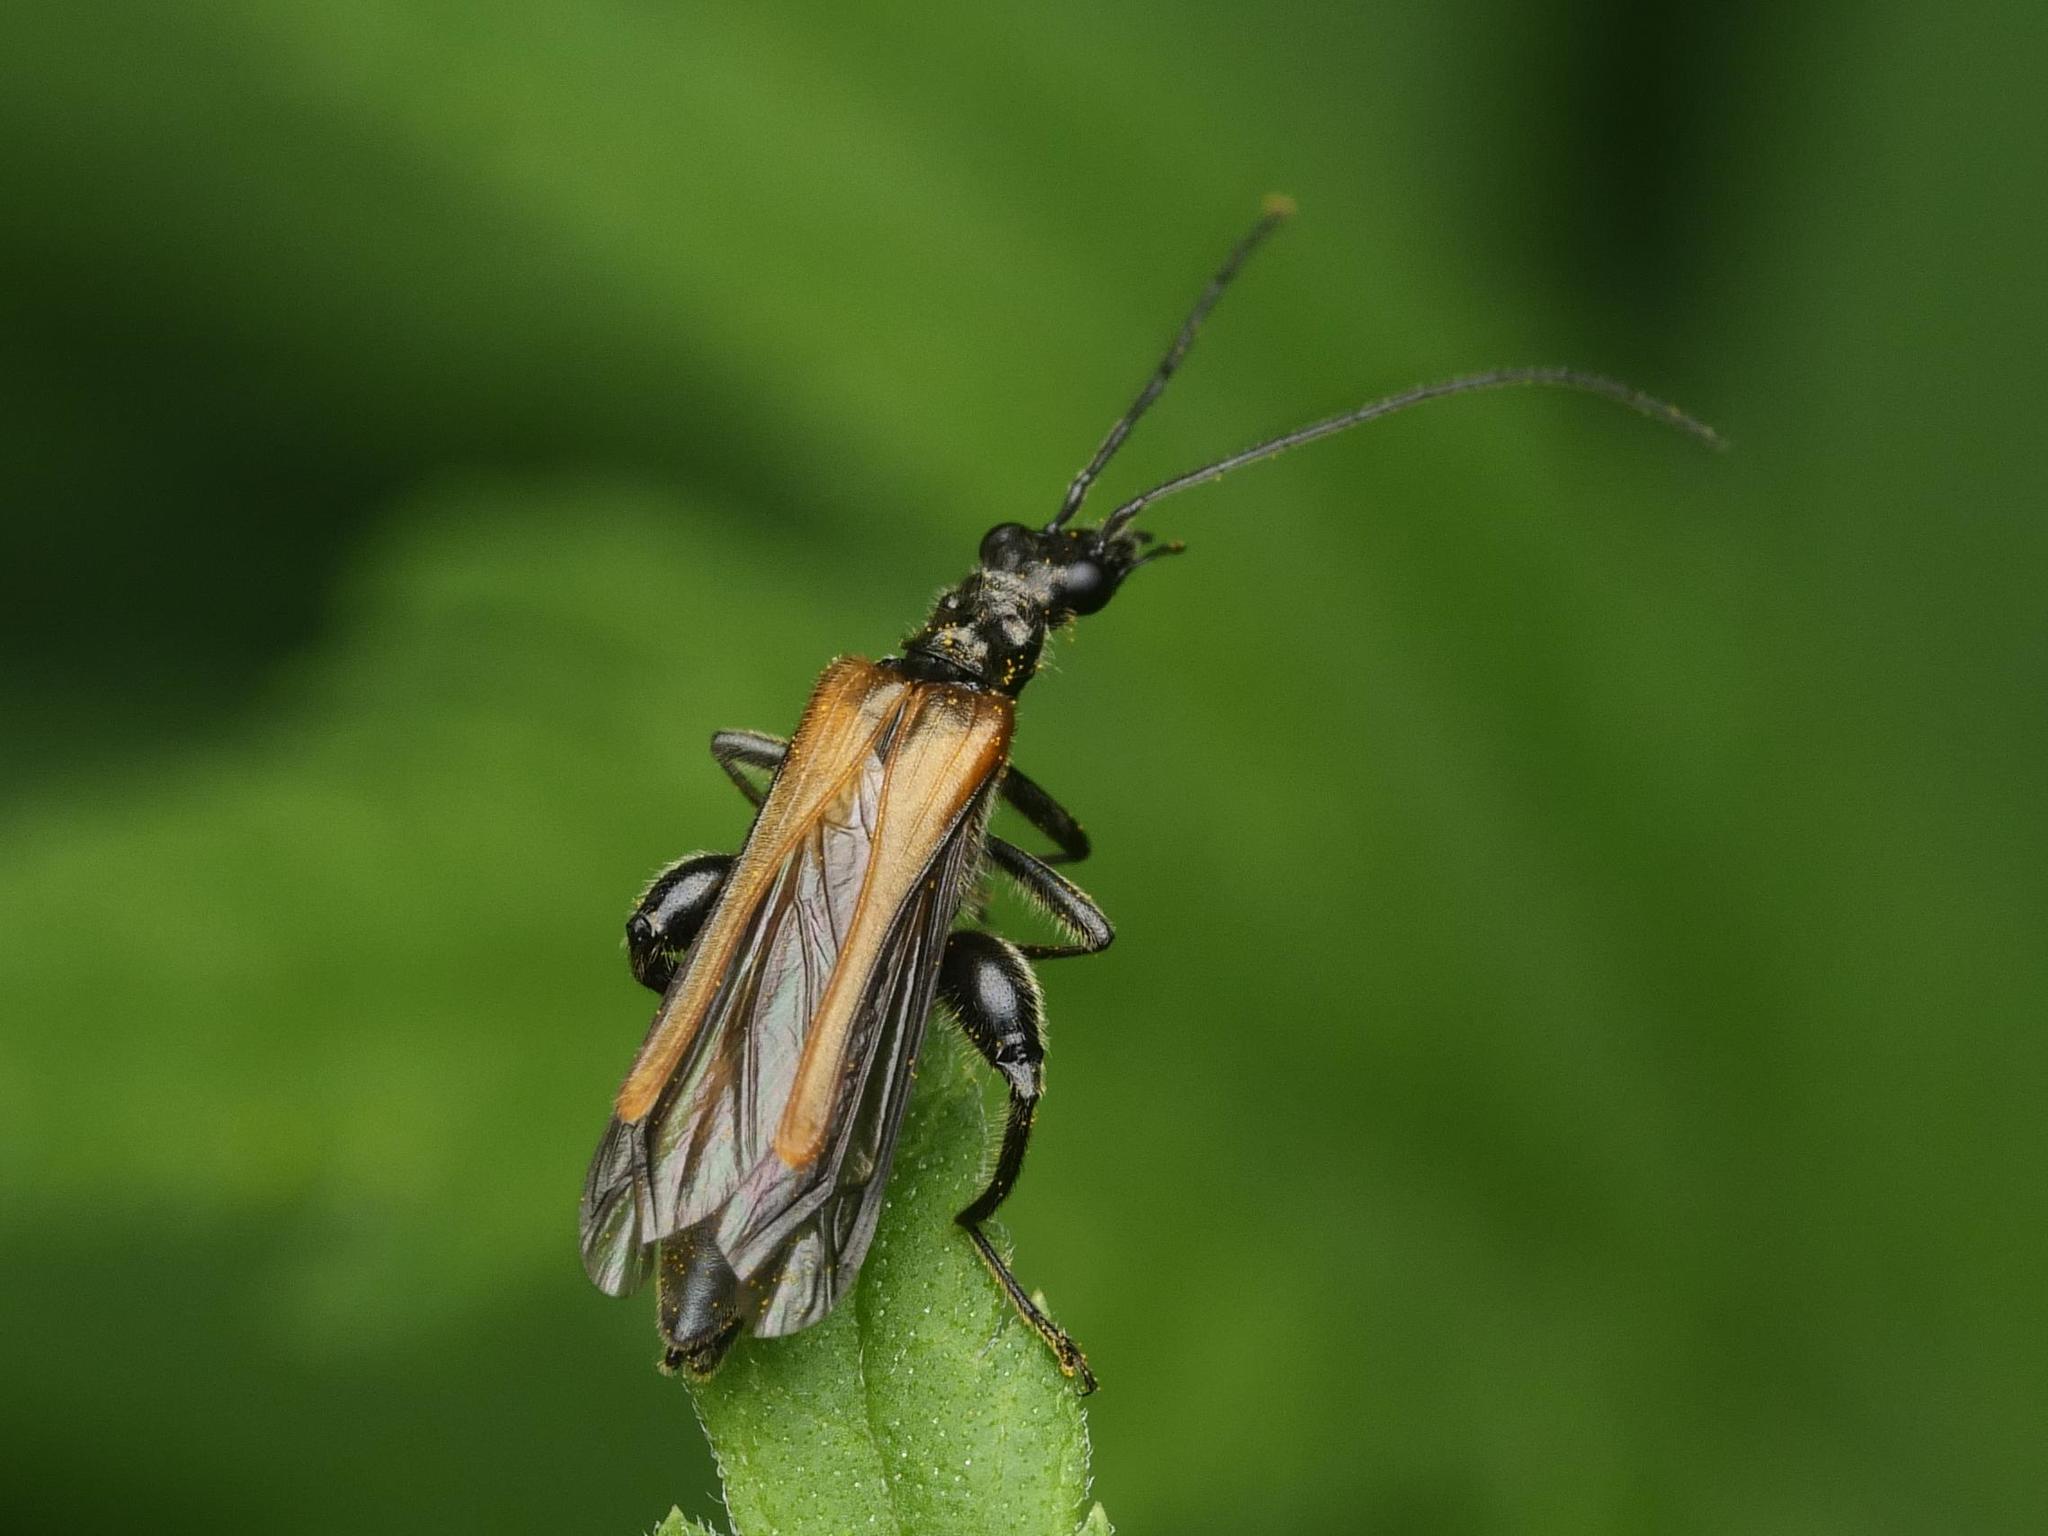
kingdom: Animalia
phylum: Arthropoda
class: Insecta
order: Coleoptera
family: Oedemeridae
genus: Oedemera
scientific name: Oedemera femorata
